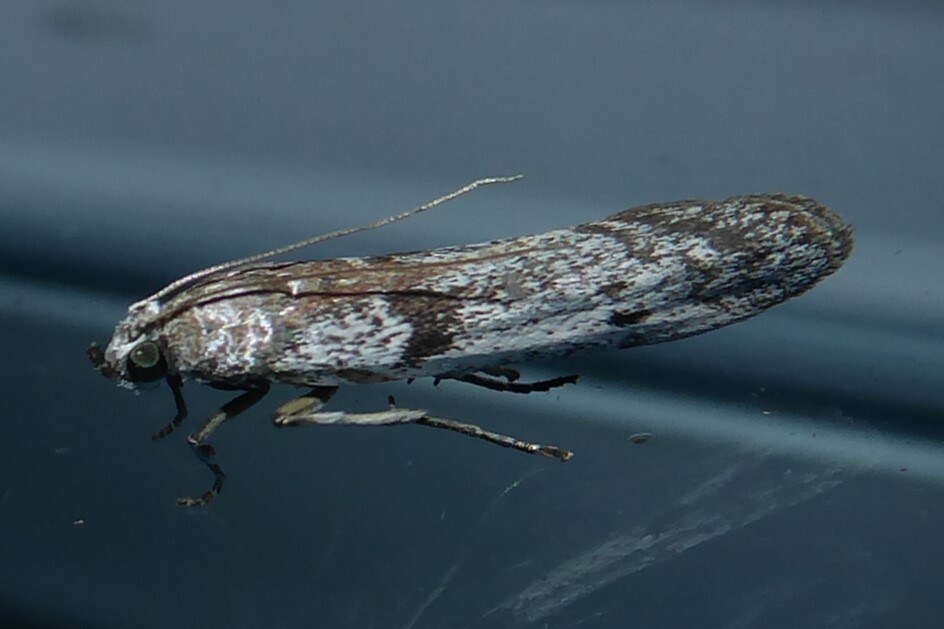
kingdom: Animalia
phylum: Arthropoda
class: Insecta
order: Lepidoptera
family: Pyralidae
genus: Patagoniodes
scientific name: Patagoniodes farinaria
